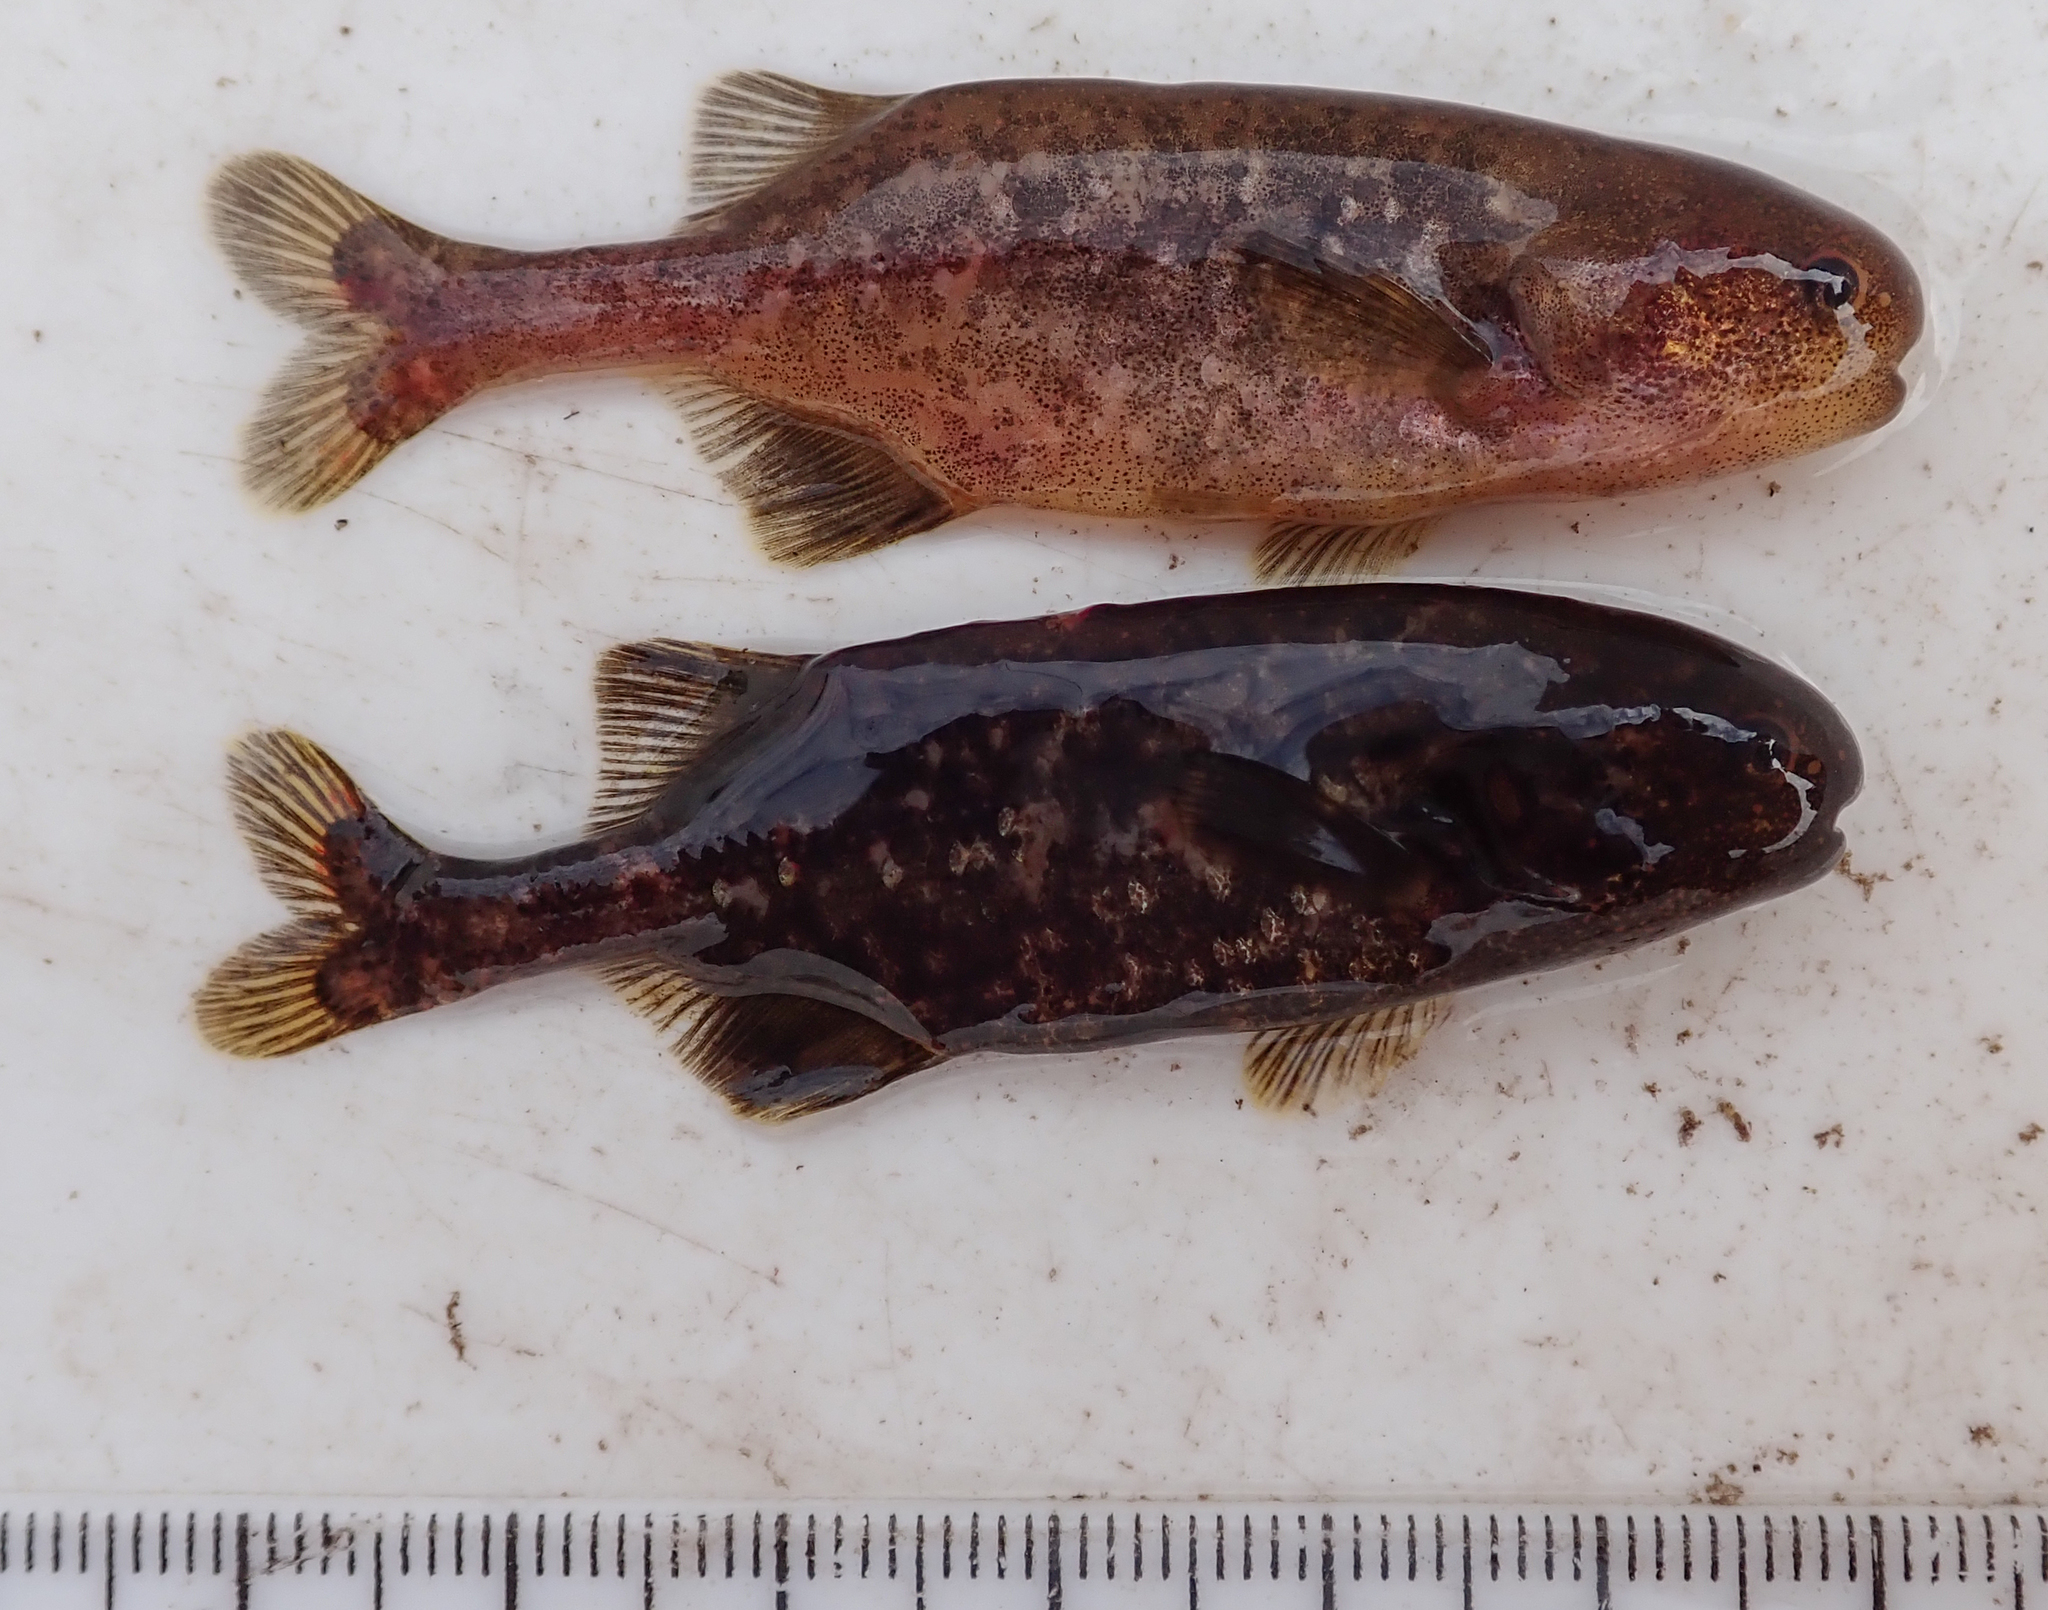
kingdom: Animalia
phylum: Chordata
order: Osteoglossiformes
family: Mormyridae
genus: Pollimyrus
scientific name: Pollimyrus cuandoensis
